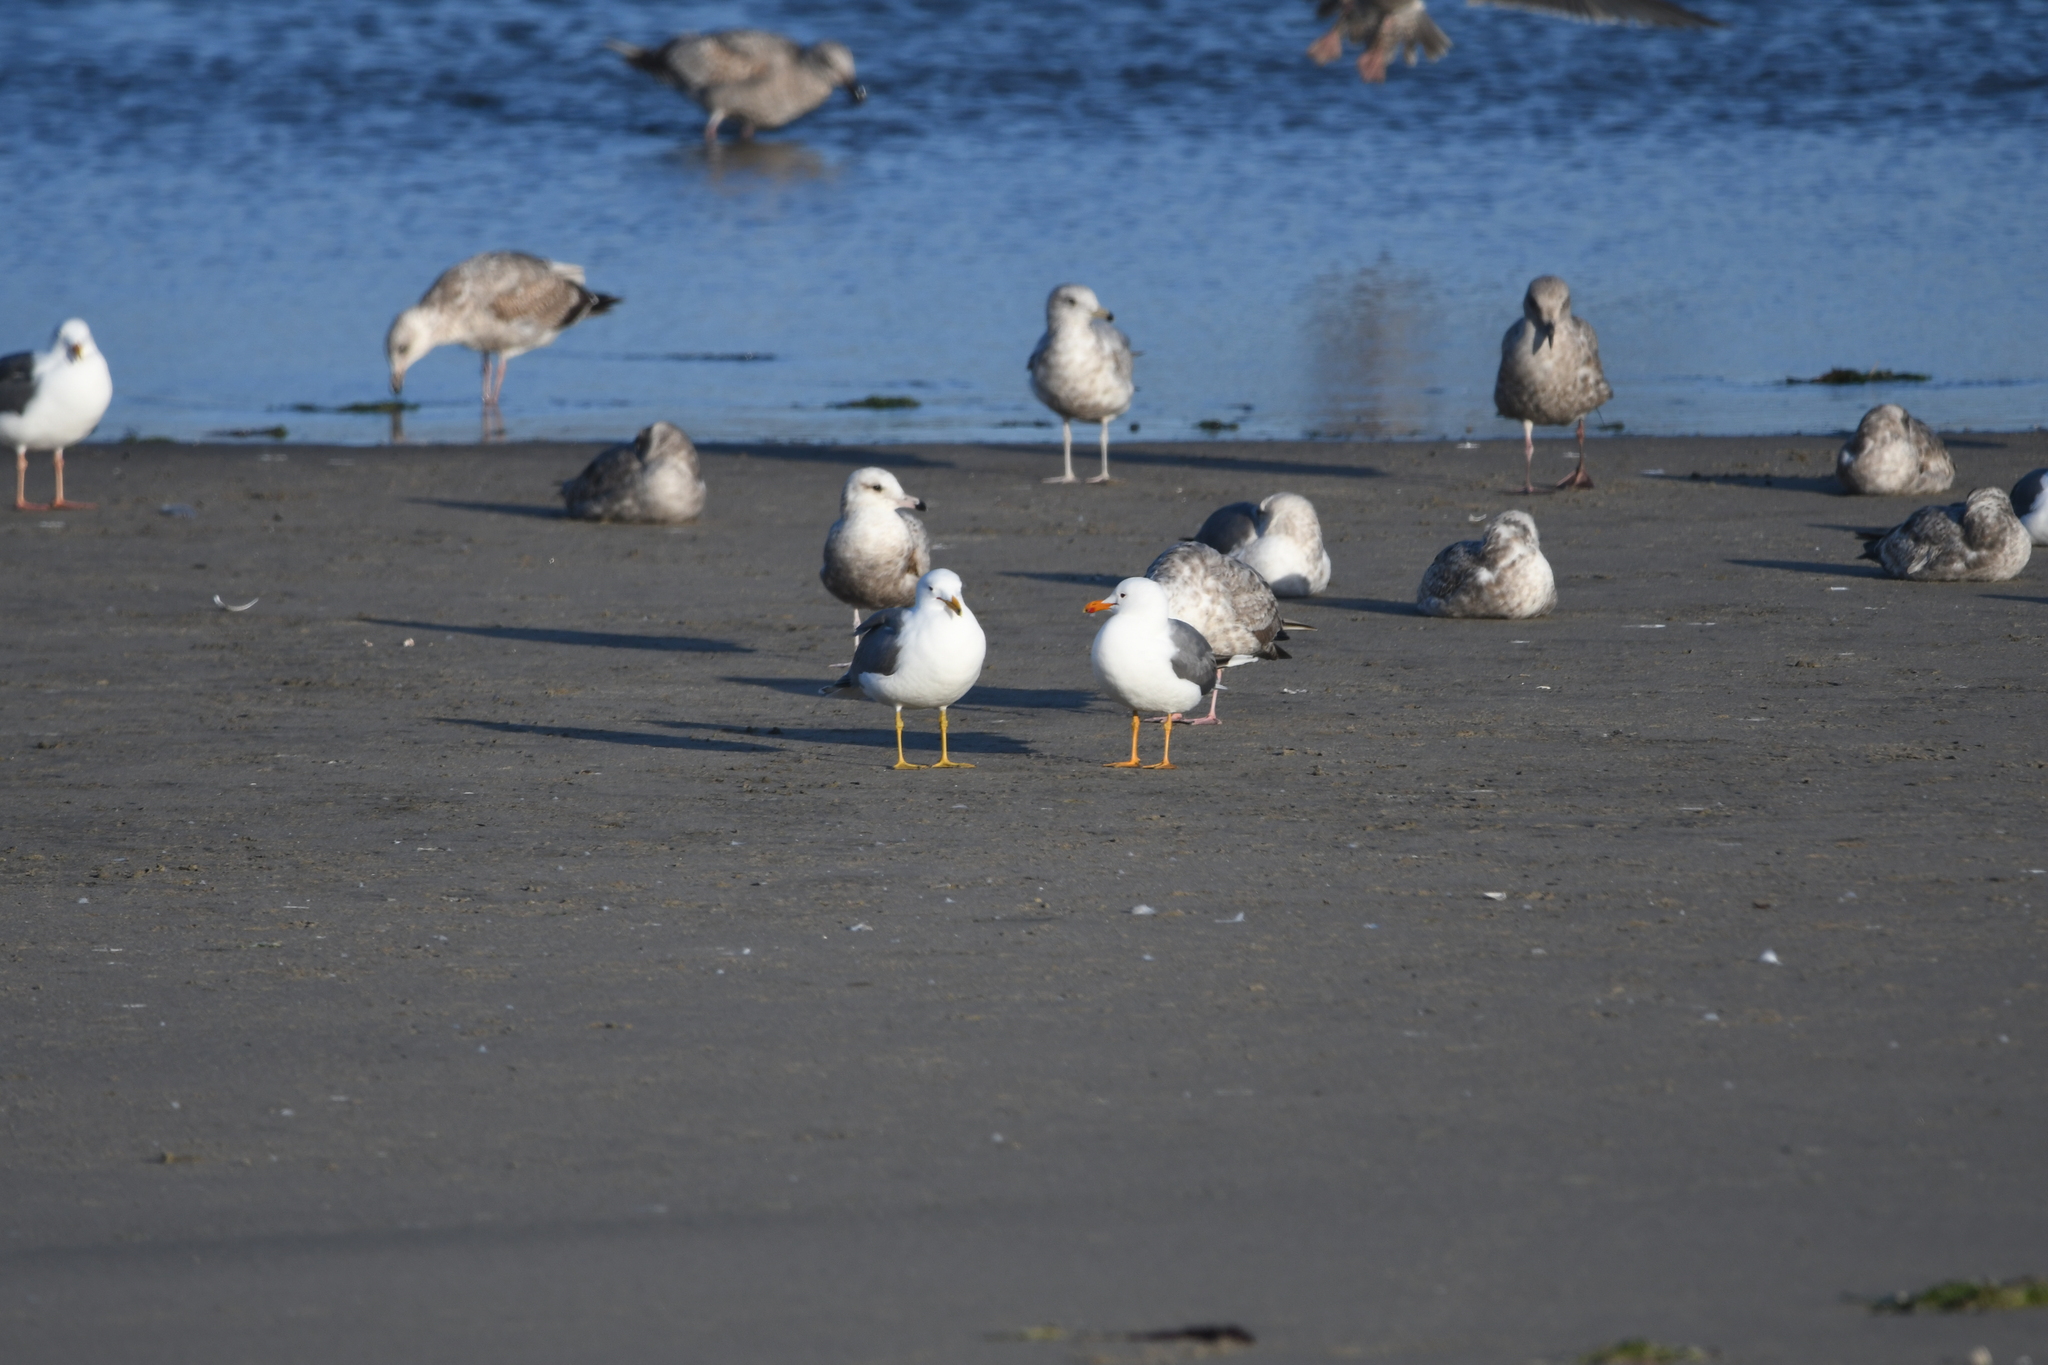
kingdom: Animalia
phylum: Chordata
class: Aves
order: Charadriiformes
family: Laridae
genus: Larus
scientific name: Larus californicus
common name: California gull
